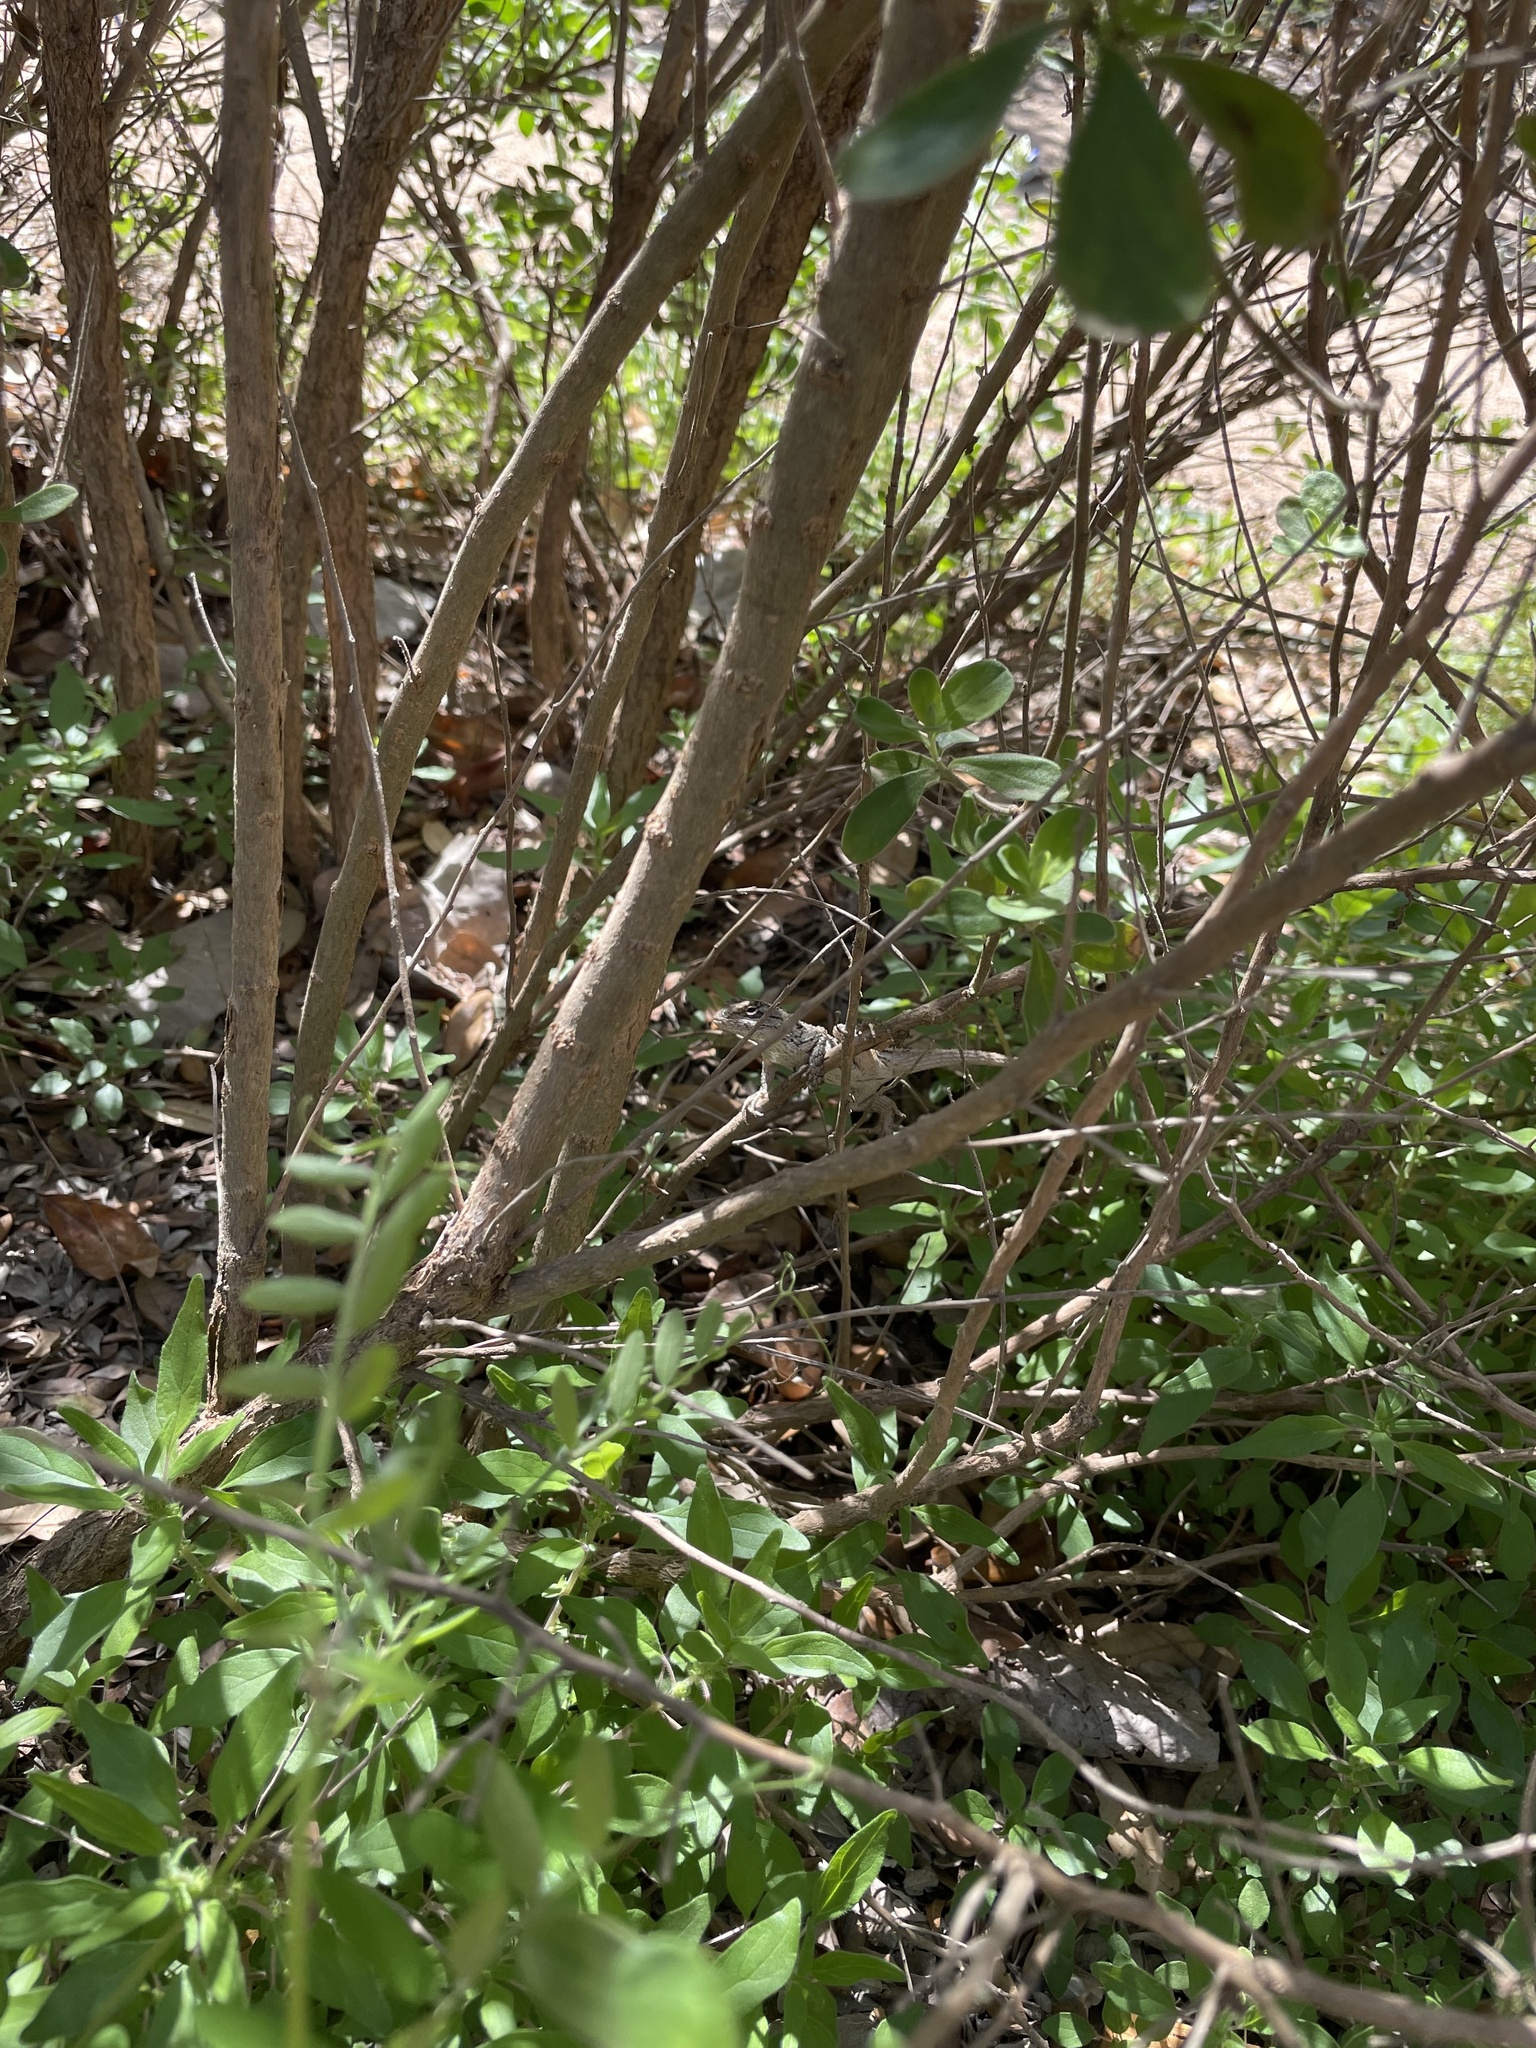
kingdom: Animalia
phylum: Chordata
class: Squamata
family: Phrynosomatidae
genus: Sceloporus
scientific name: Sceloporus olivaceus
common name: Texas spiny lizard
